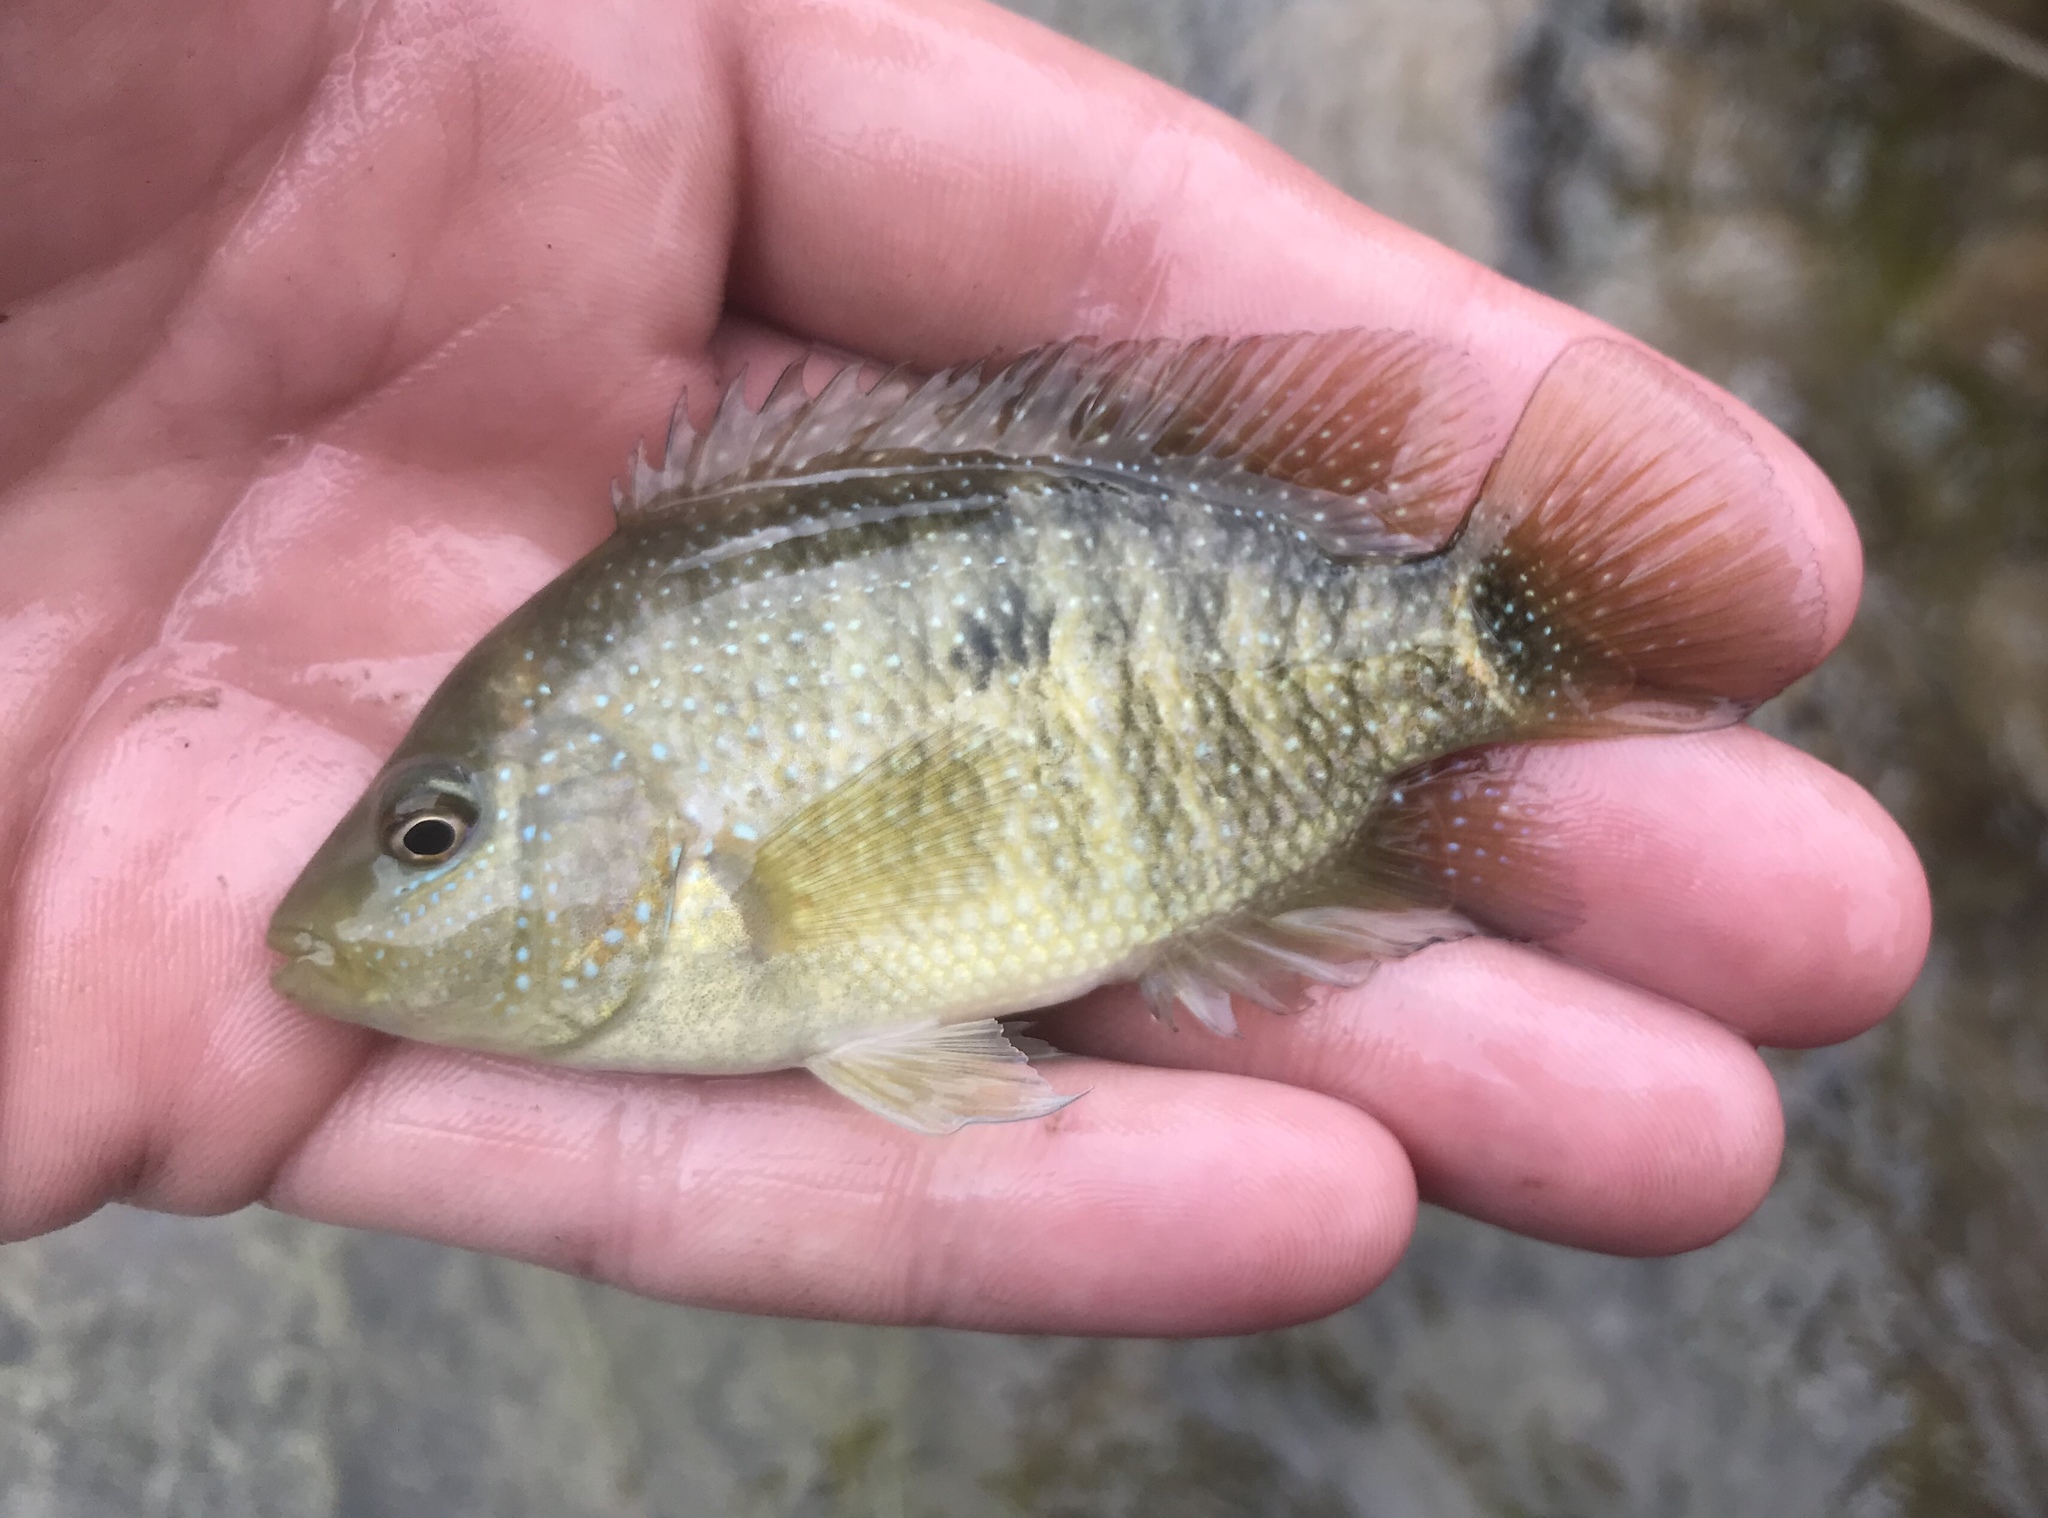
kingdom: Animalia
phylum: Chordata
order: Perciformes
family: Cichlidae
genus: Herichthys
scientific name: Herichthys cyanoguttatus
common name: Rio grande cichlid
